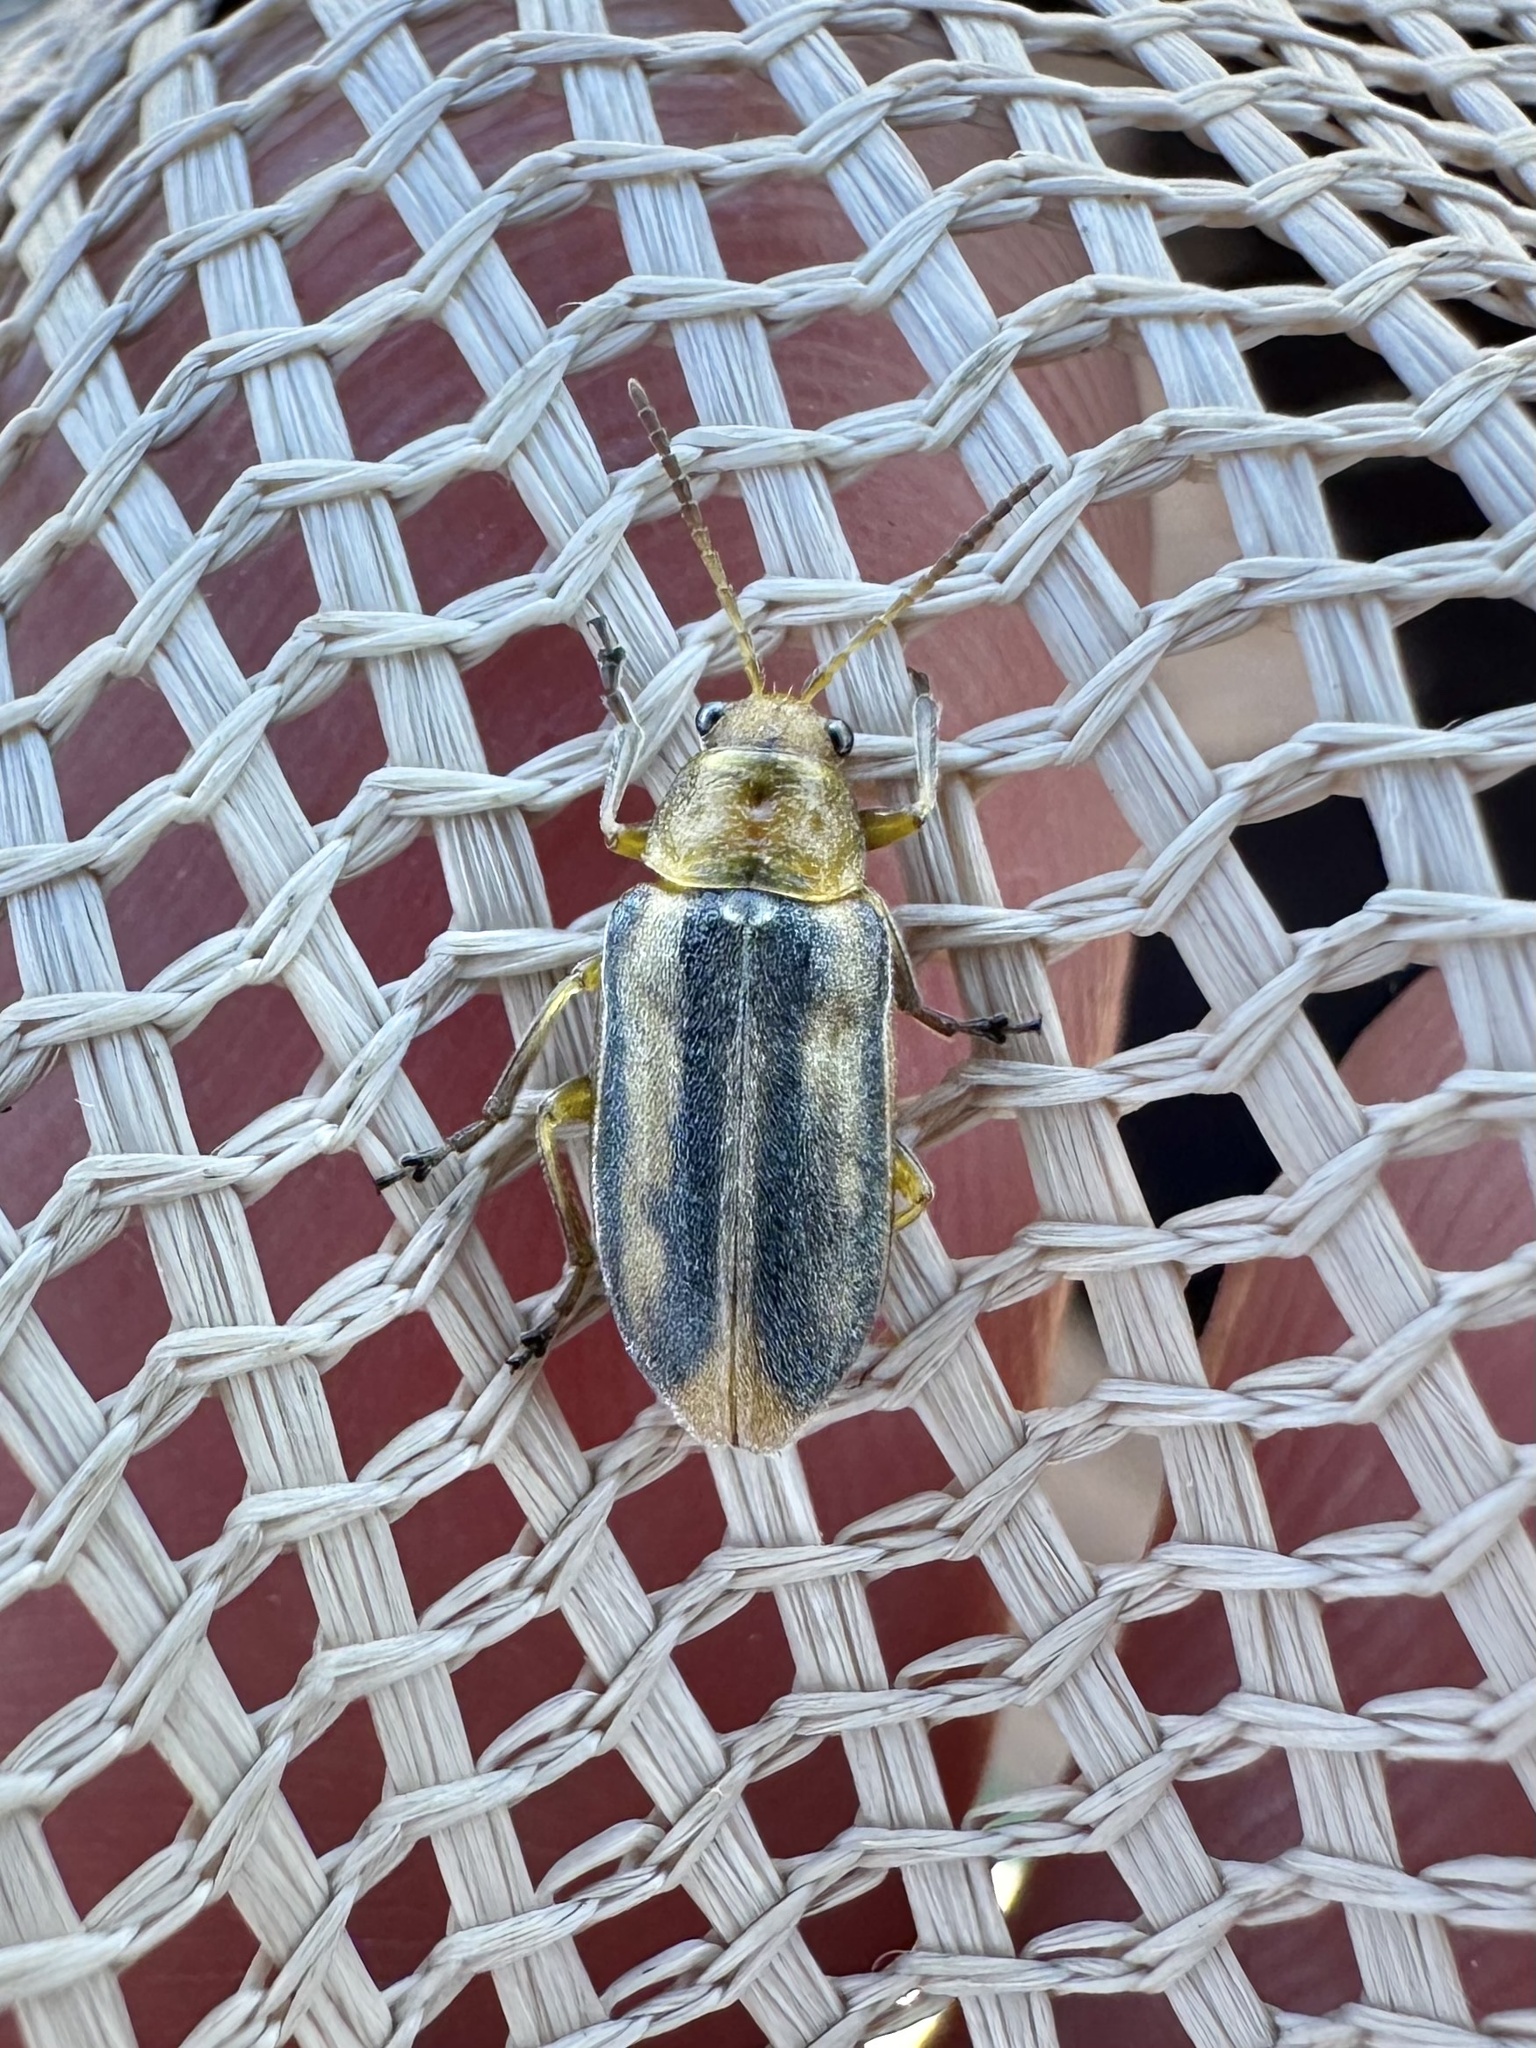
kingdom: Animalia
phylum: Arthropoda
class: Insecta
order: Coleoptera
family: Chrysomelidae
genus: Erynephala
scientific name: Erynephala
